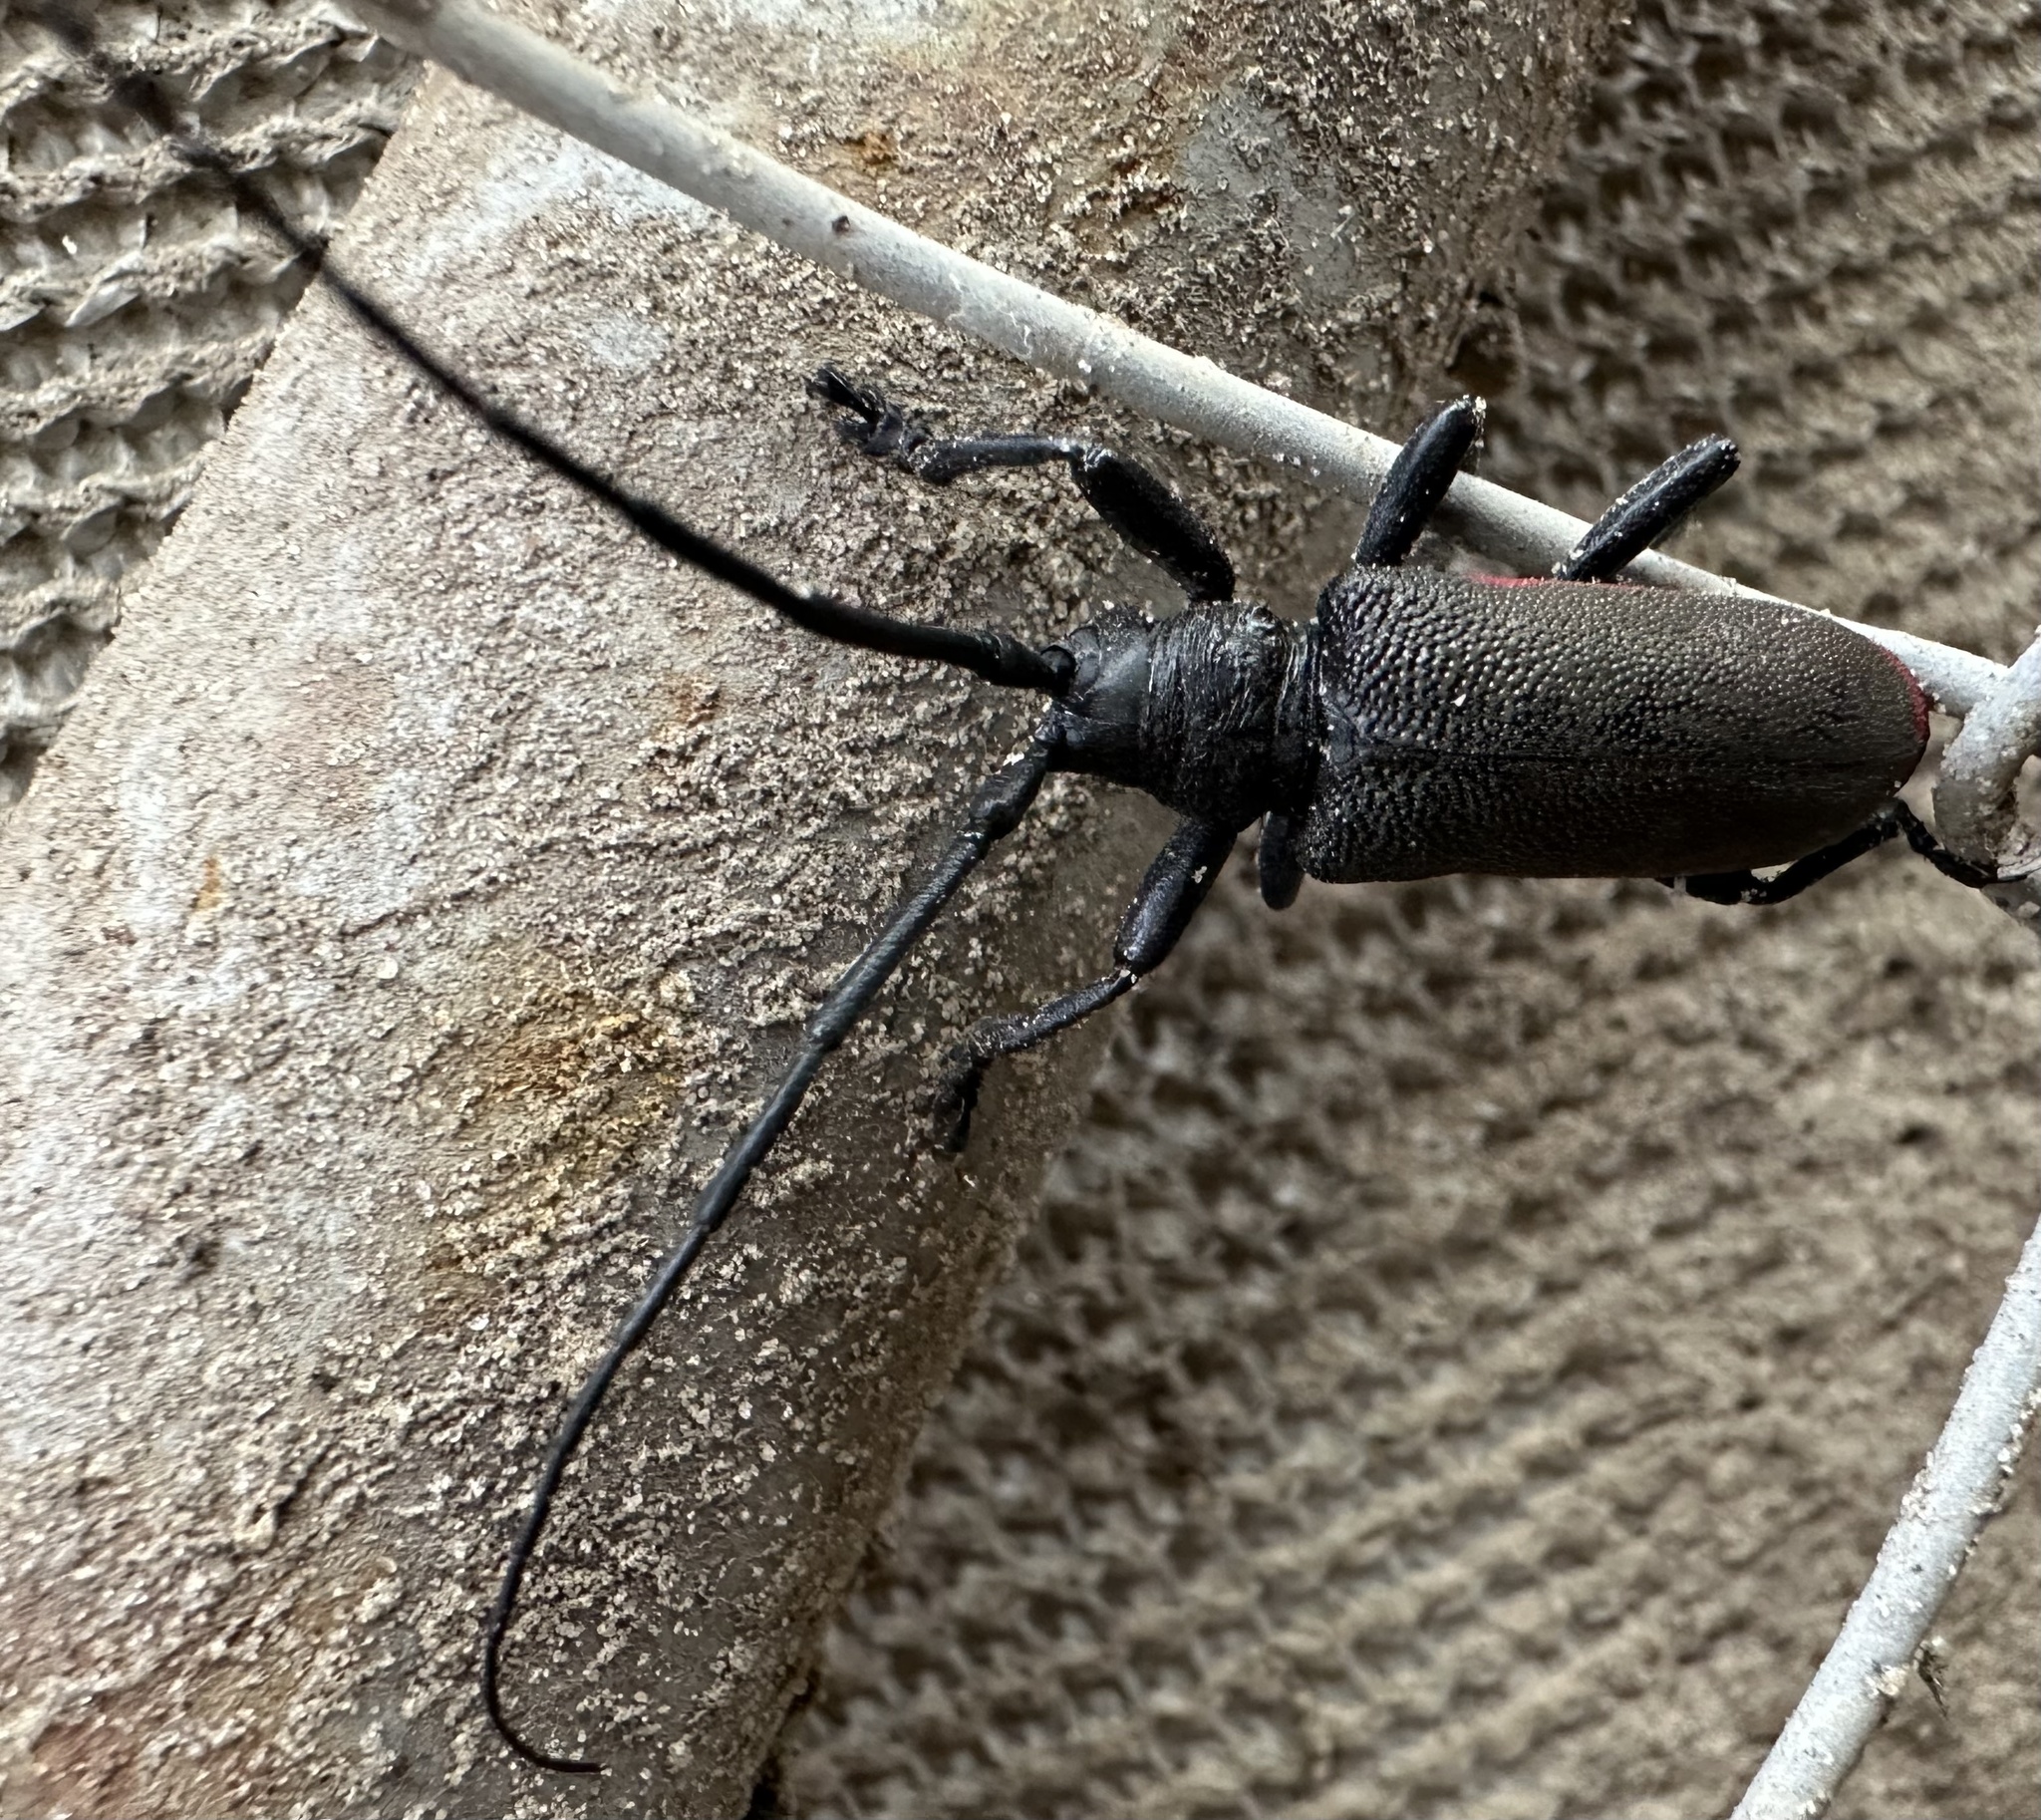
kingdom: Animalia
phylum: Arthropoda
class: Insecta
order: Coleoptera
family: Cerambycidae
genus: Ceroplesis
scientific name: Ceroplesis ferrugator
